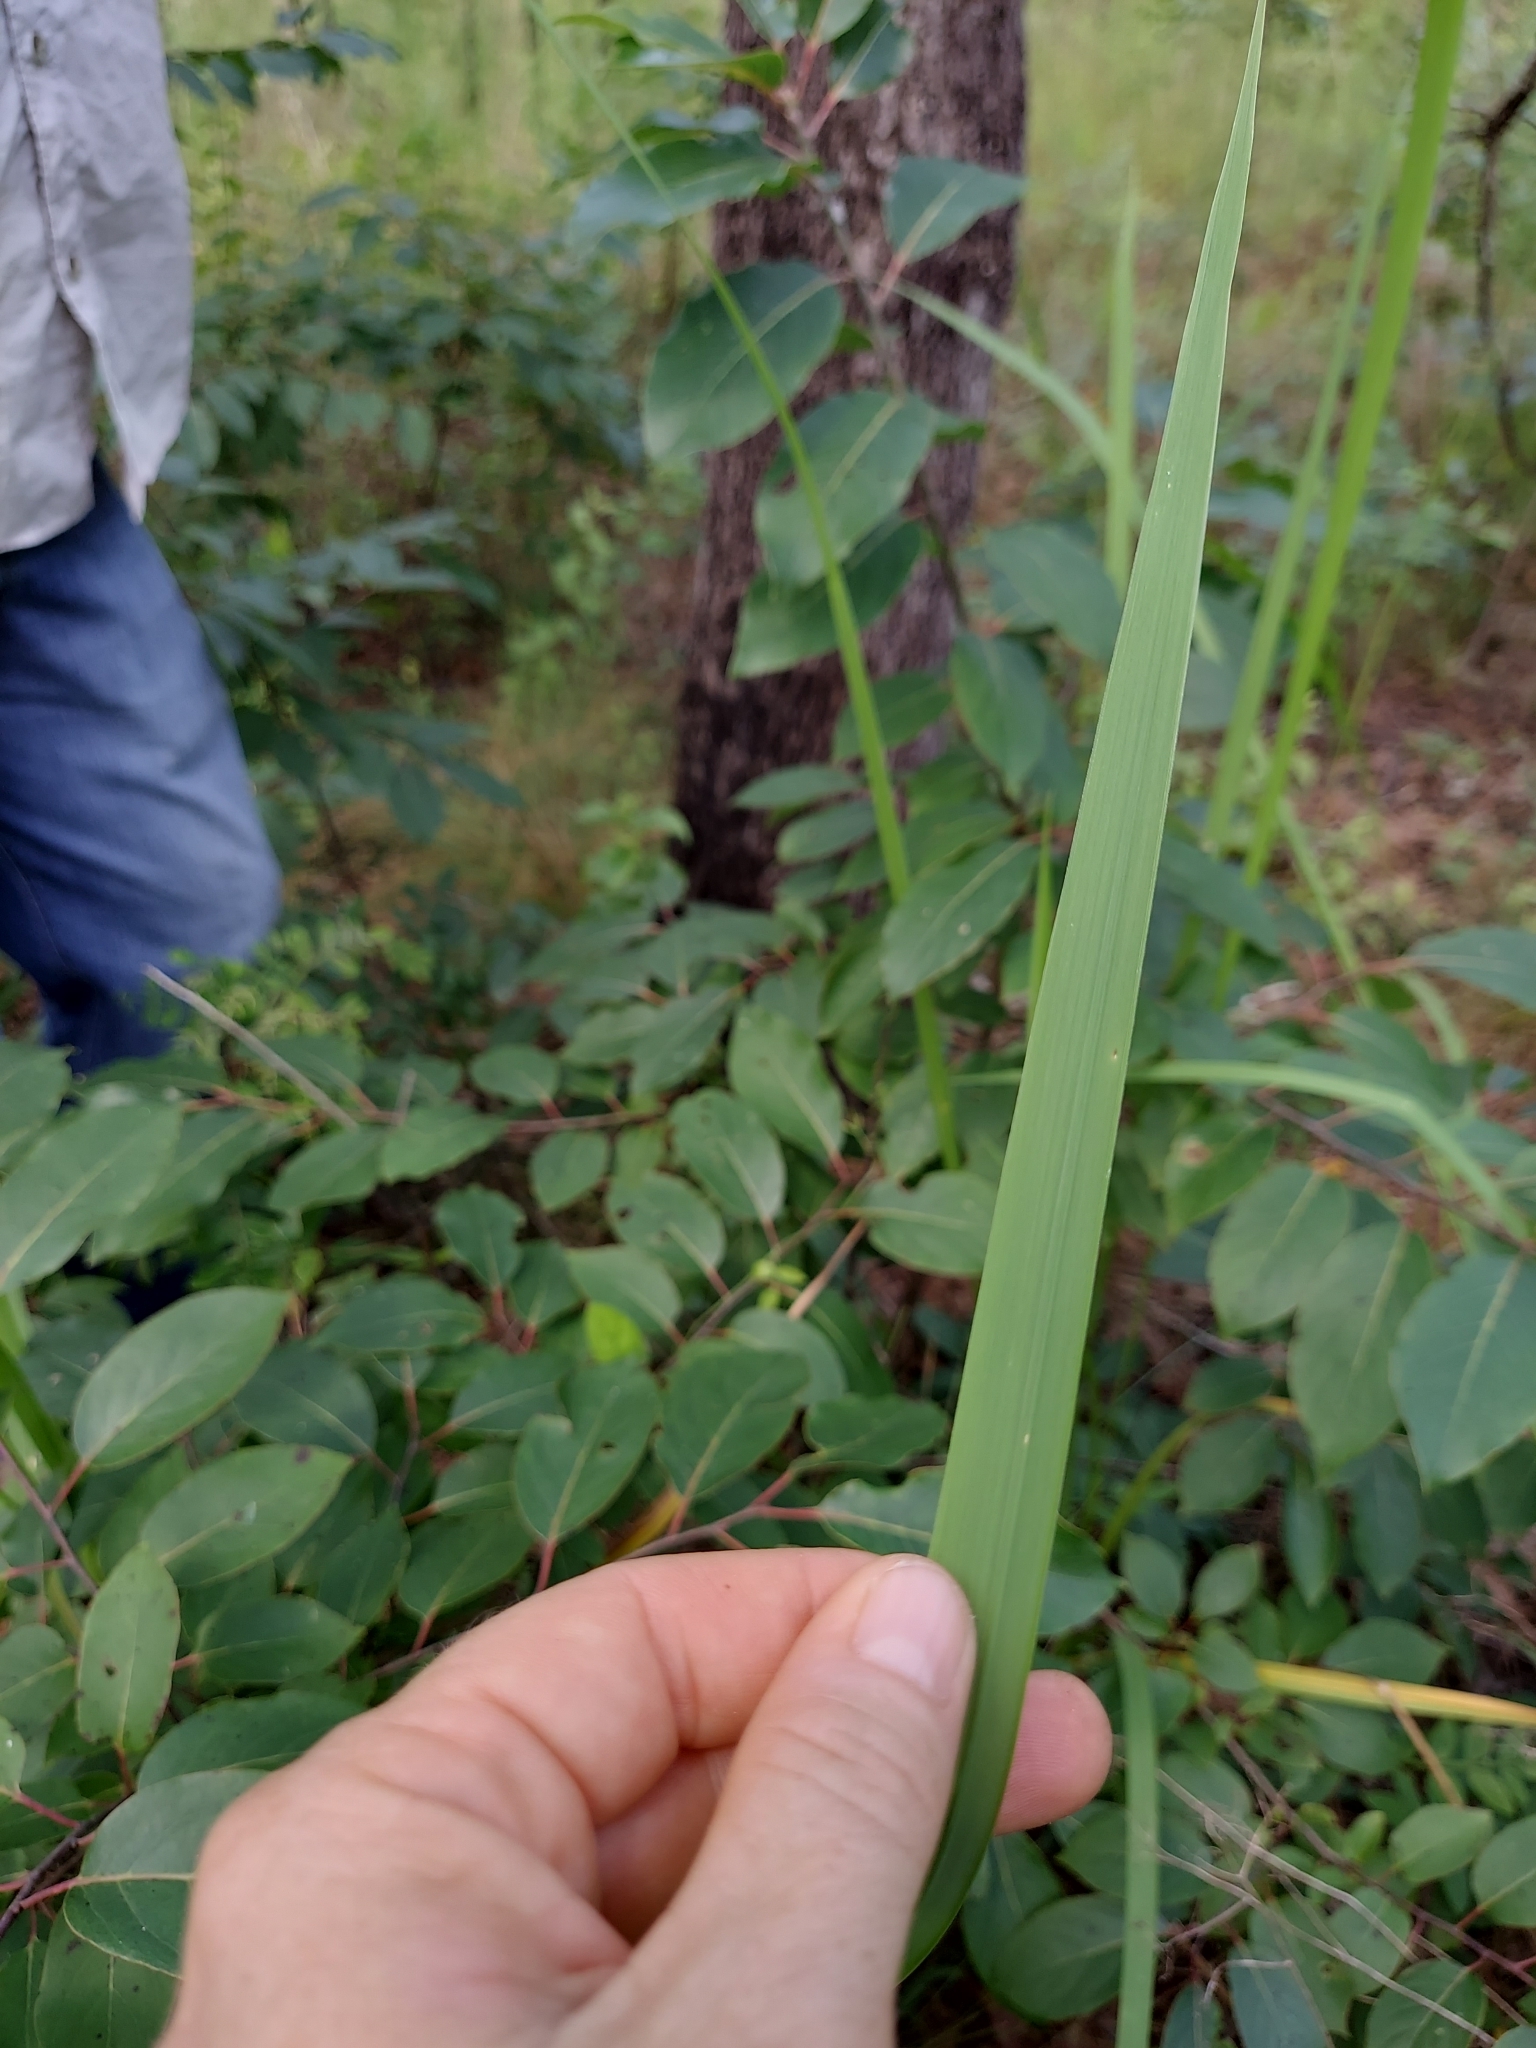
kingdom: Plantae
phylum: Tracheophyta
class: Liliopsida
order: Poales
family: Poaceae
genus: Imperata
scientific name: Imperata cylindrica
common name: Cogongrass
